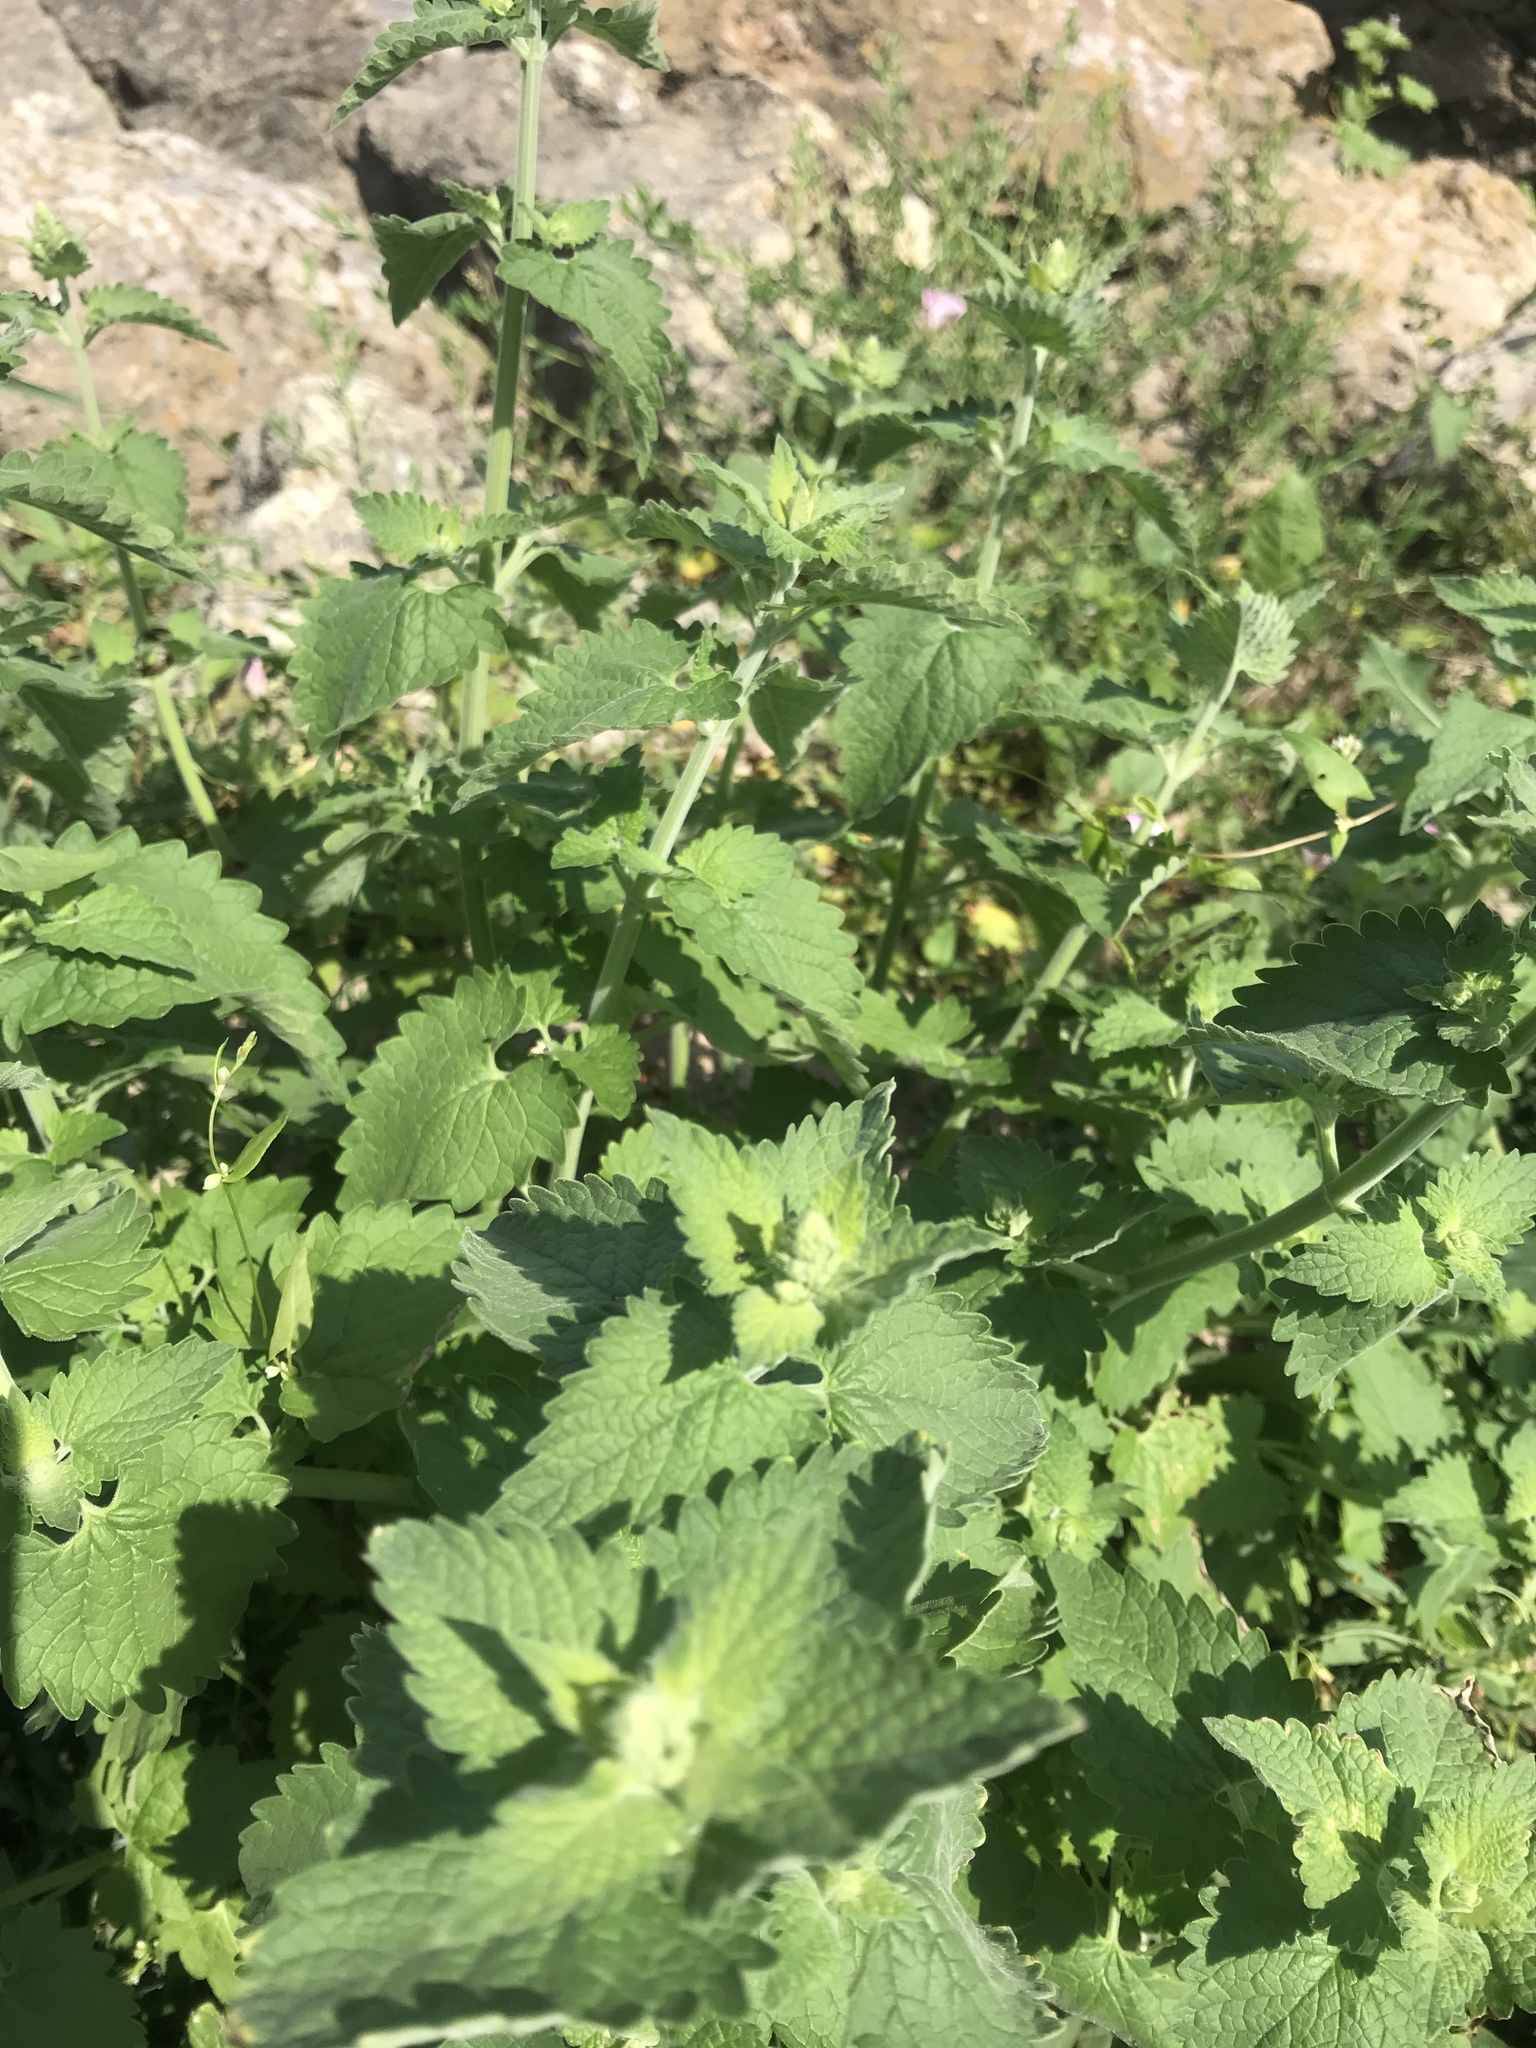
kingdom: Plantae
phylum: Tracheophyta
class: Magnoliopsida
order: Lamiales
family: Lamiaceae
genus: Nepeta
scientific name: Nepeta cataria
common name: Catnip
